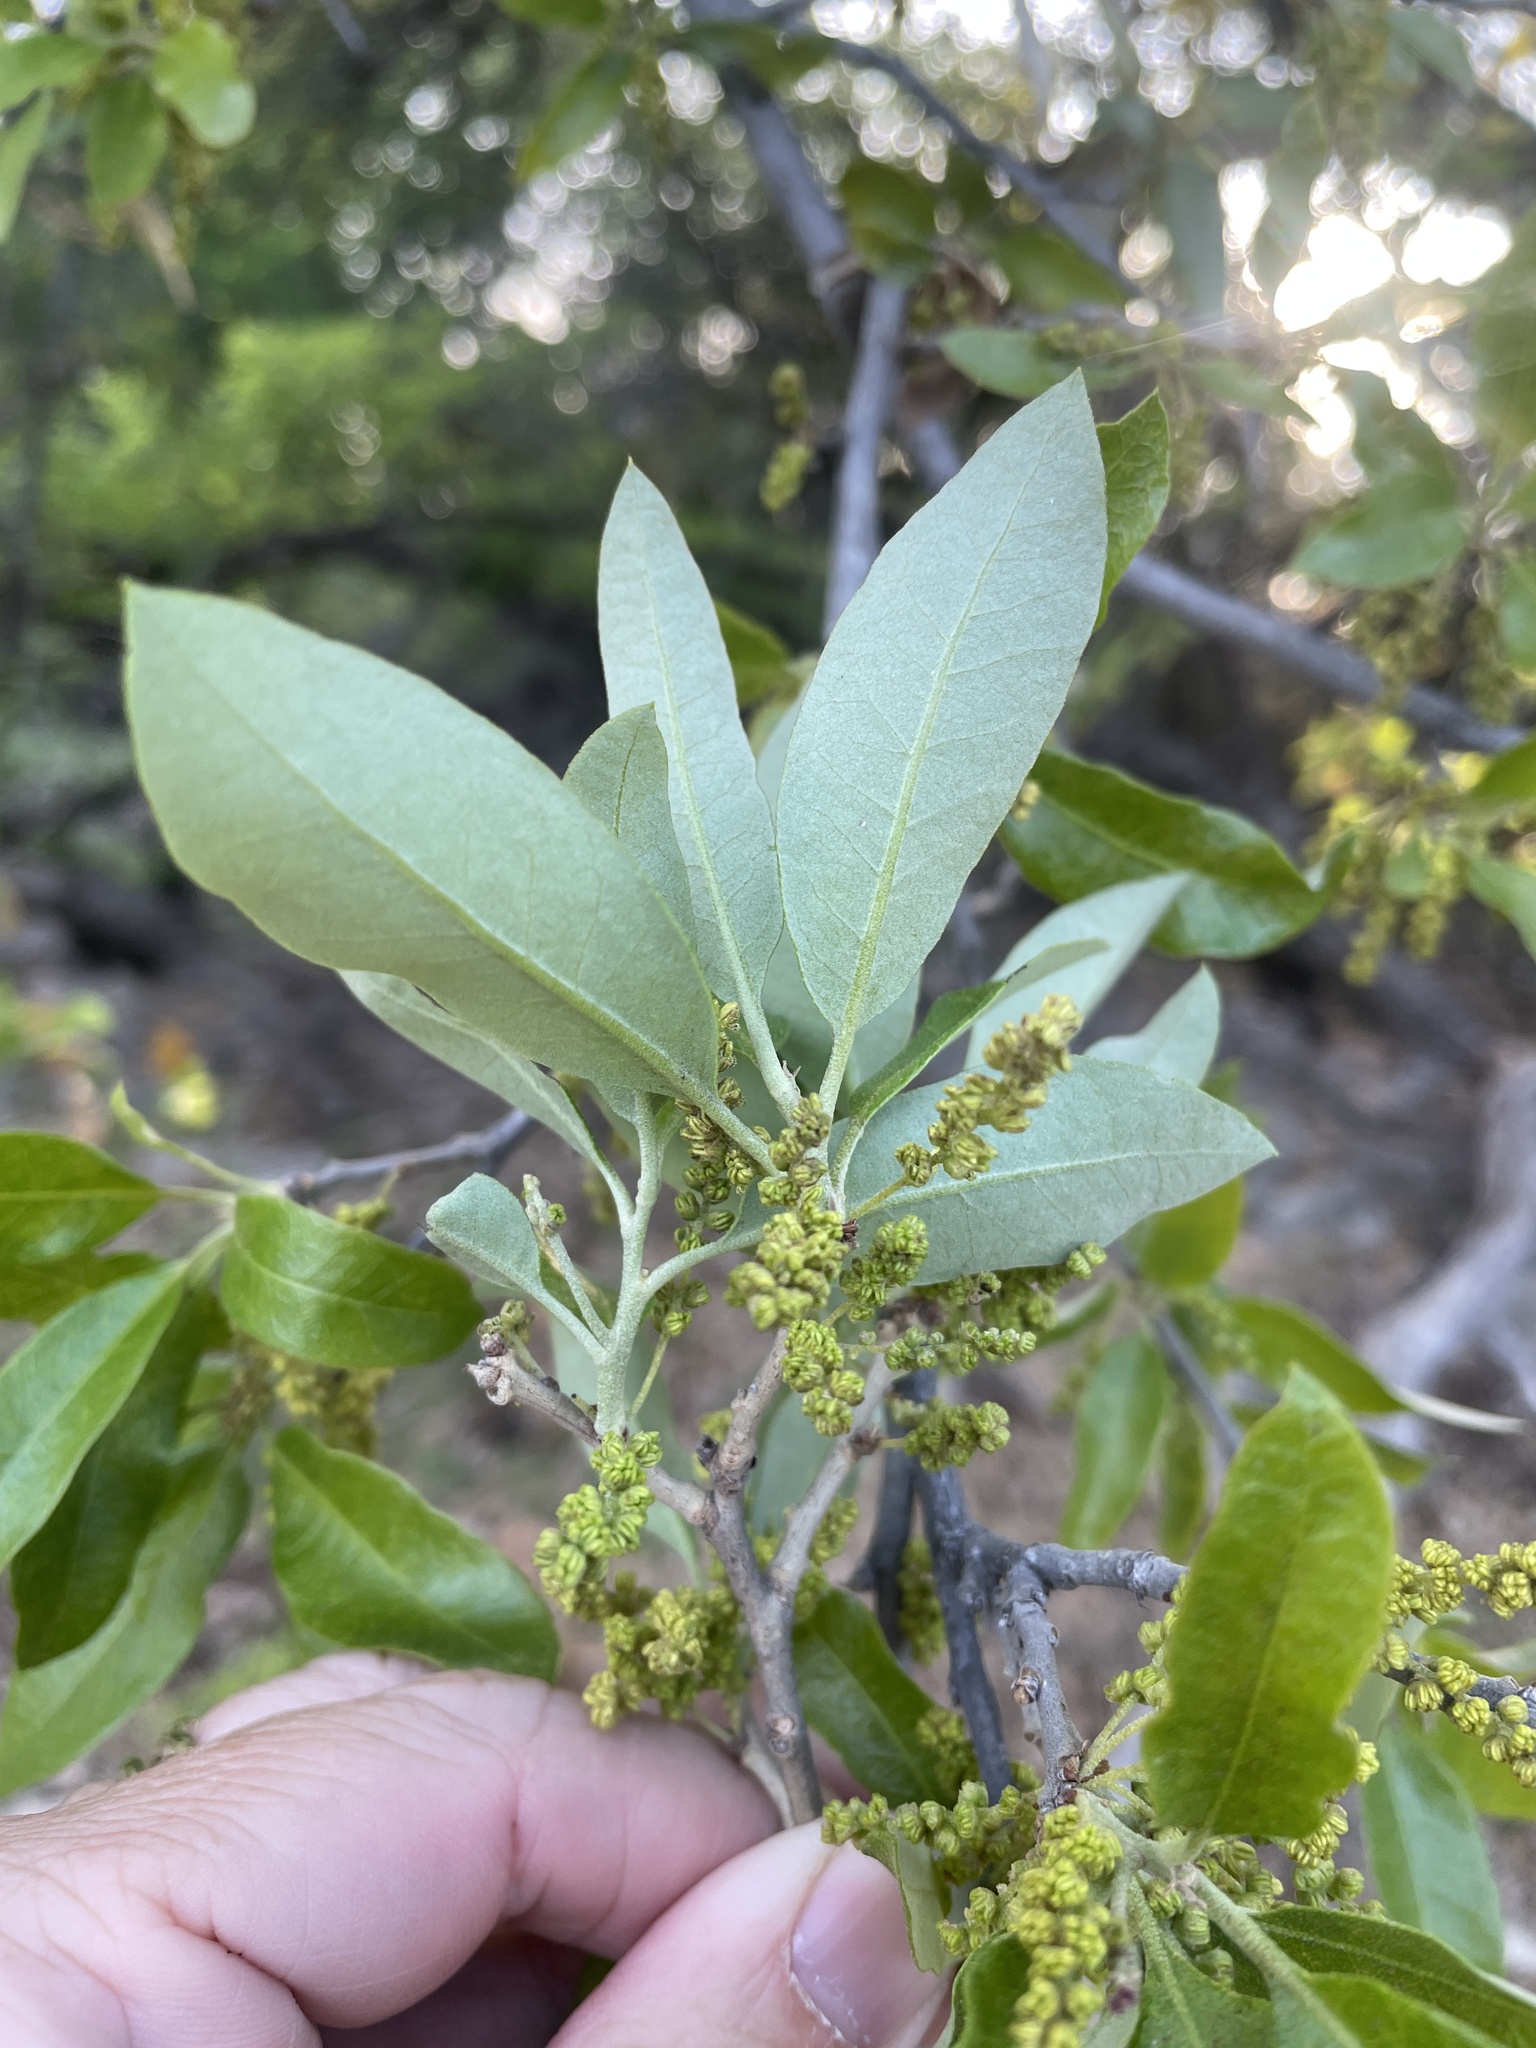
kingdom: Plantae
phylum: Tracheophyta
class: Magnoliopsida
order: Fagales
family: Fagaceae
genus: Quercus
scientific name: Quercus fusiformis
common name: Texas live oak
